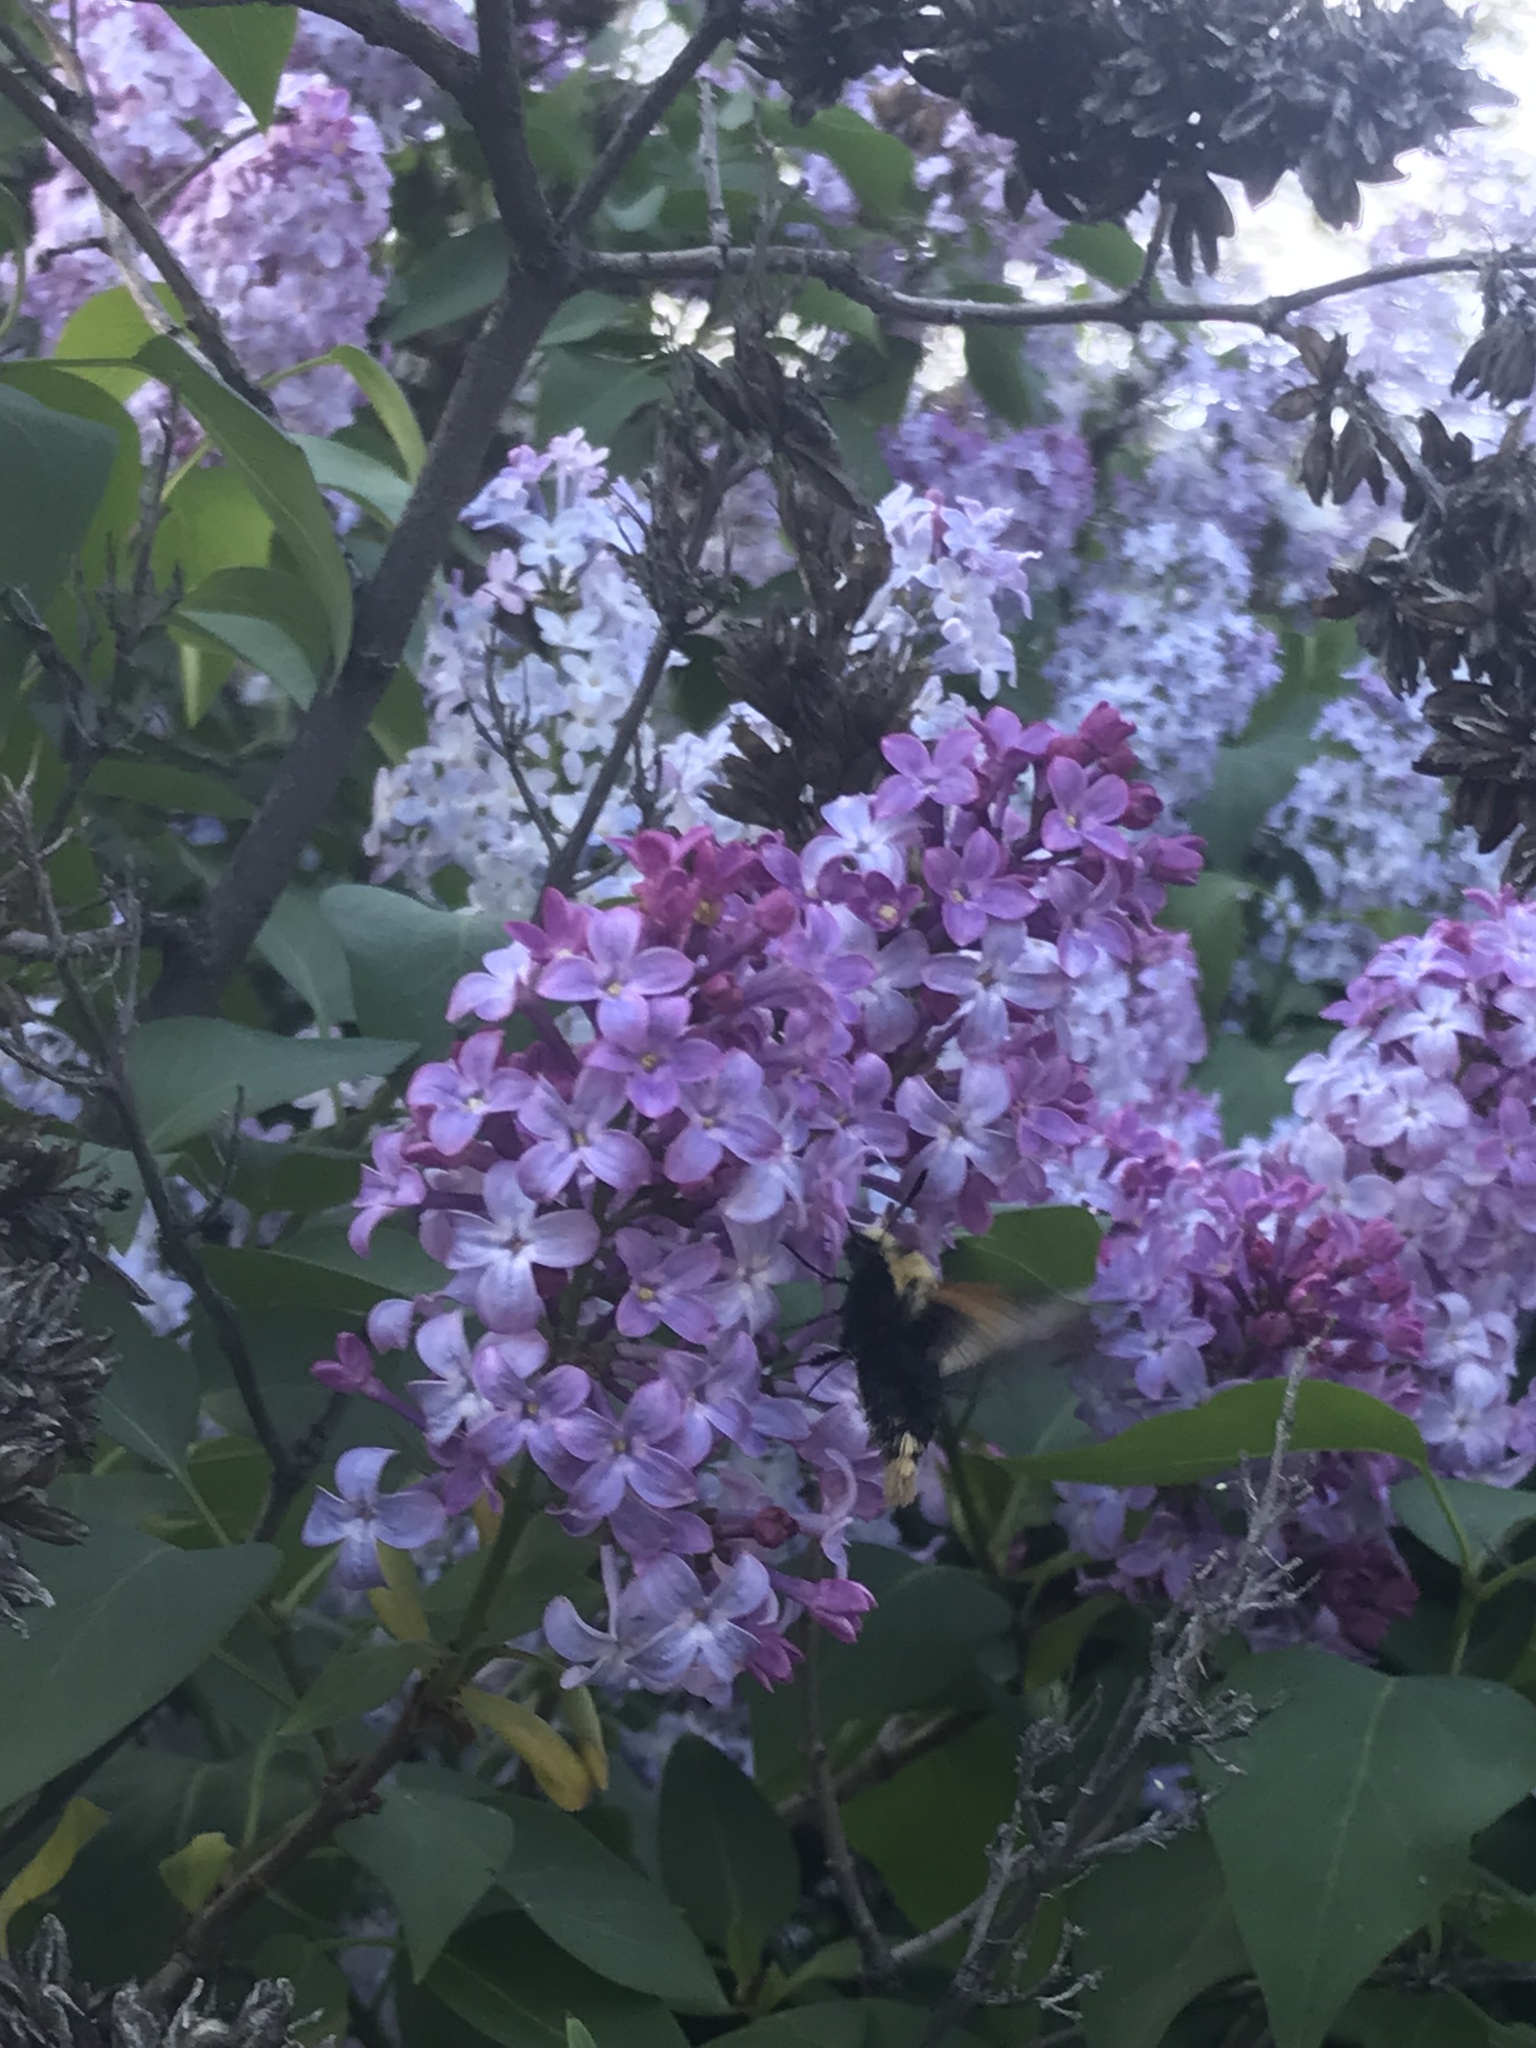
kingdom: Animalia
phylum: Arthropoda
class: Insecta
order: Lepidoptera
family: Sphingidae
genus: Proserpinus
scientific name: Proserpinus flavofasciata
